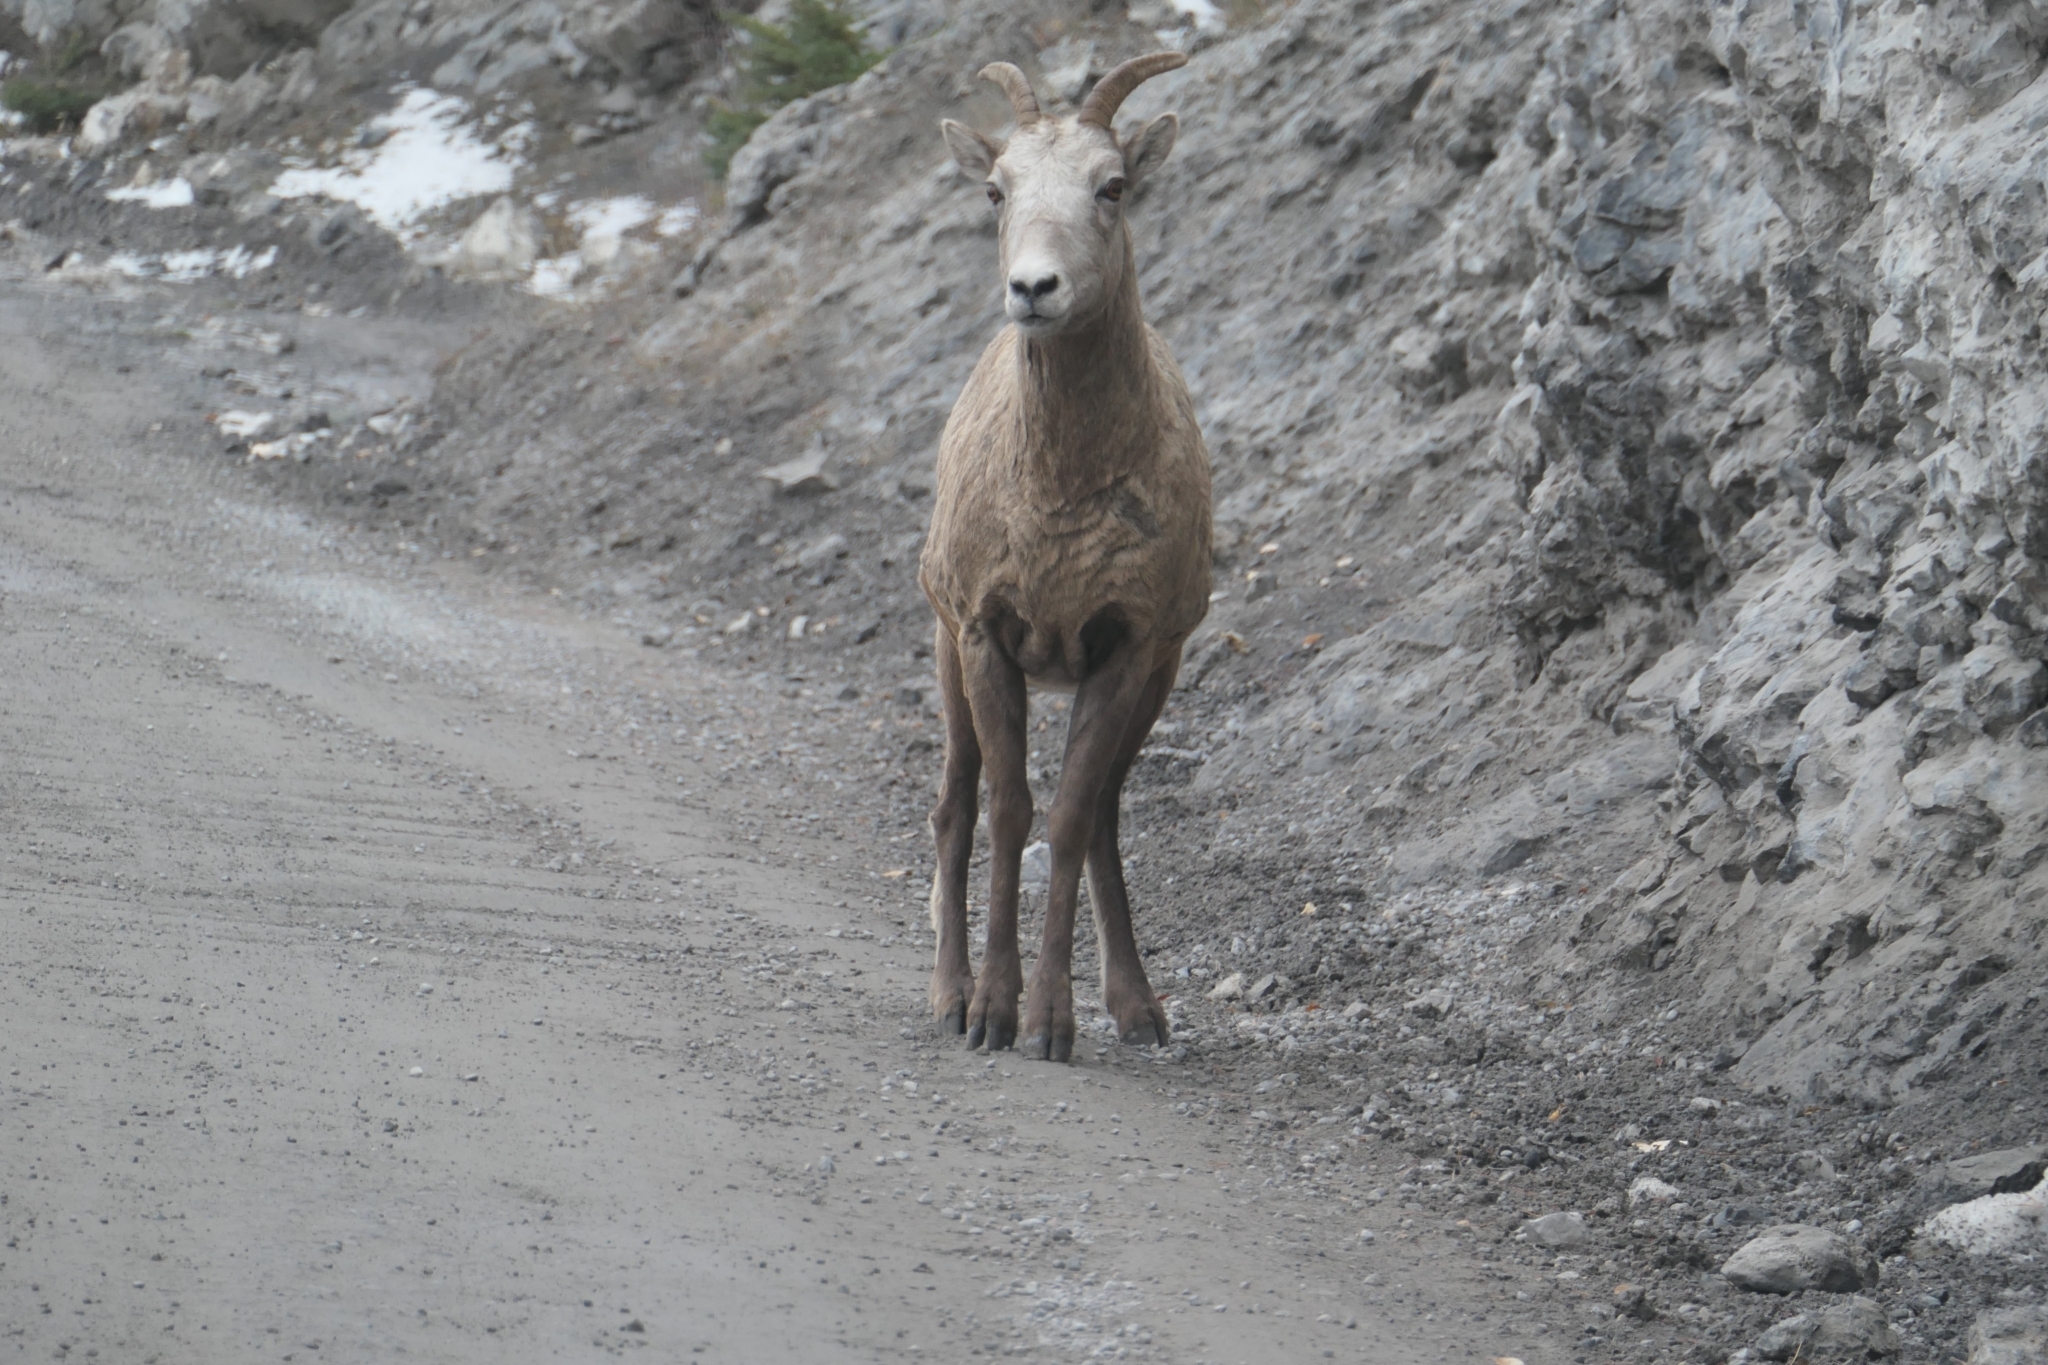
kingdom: Animalia
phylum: Chordata
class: Mammalia
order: Artiodactyla
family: Bovidae
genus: Ovis
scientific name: Ovis canadensis
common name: Bighorn sheep
